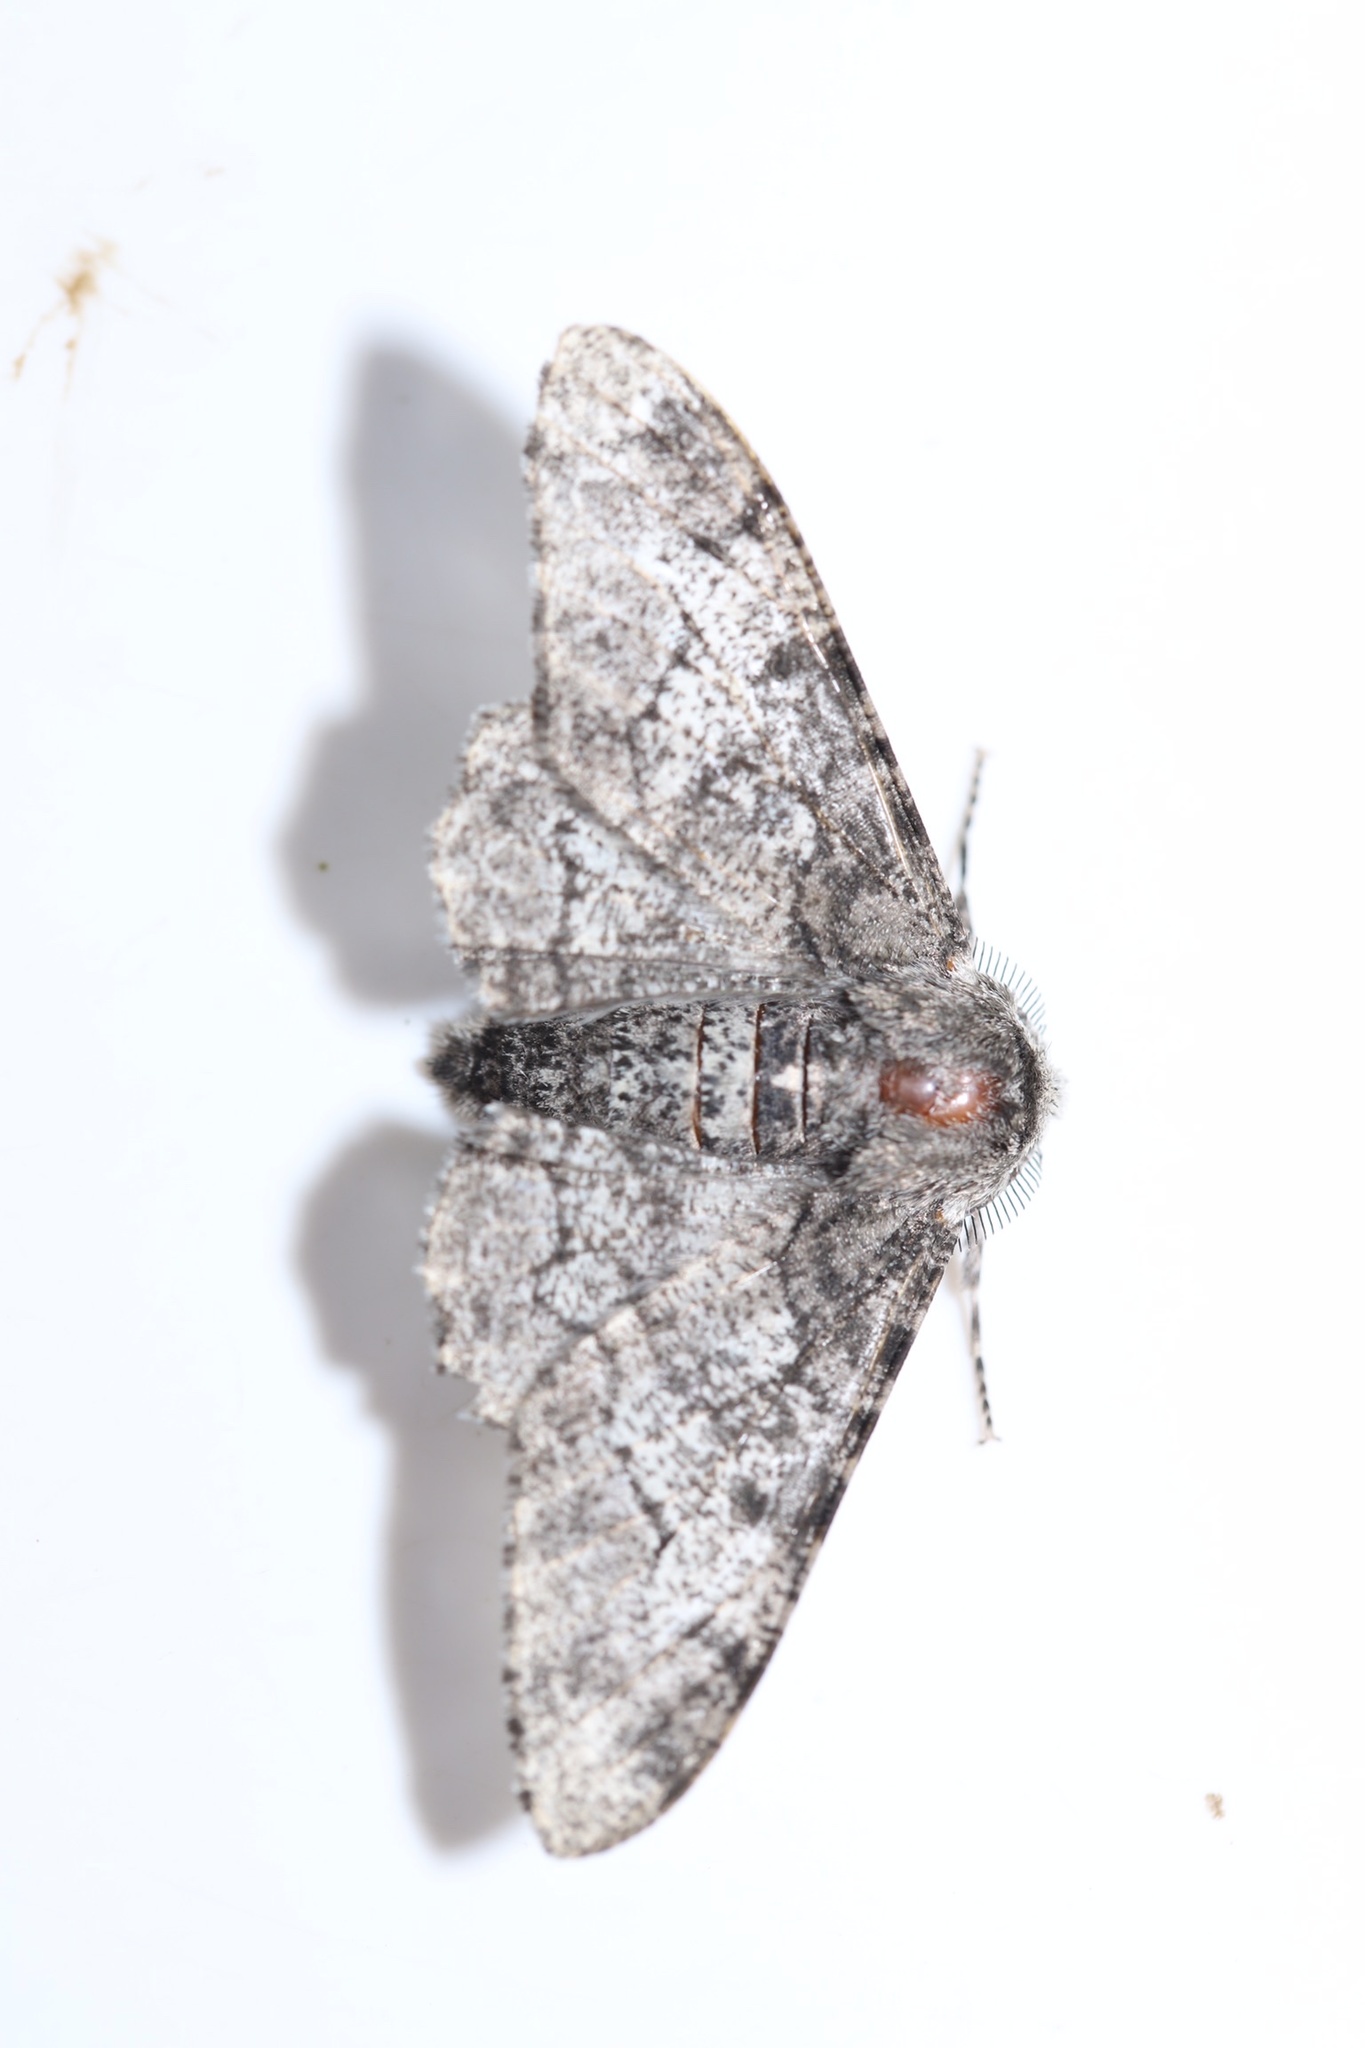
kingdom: Animalia
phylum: Arthropoda
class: Insecta
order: Lepidoptera
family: Geometridae
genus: Biston
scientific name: Biston betularia
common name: Peppered moth
